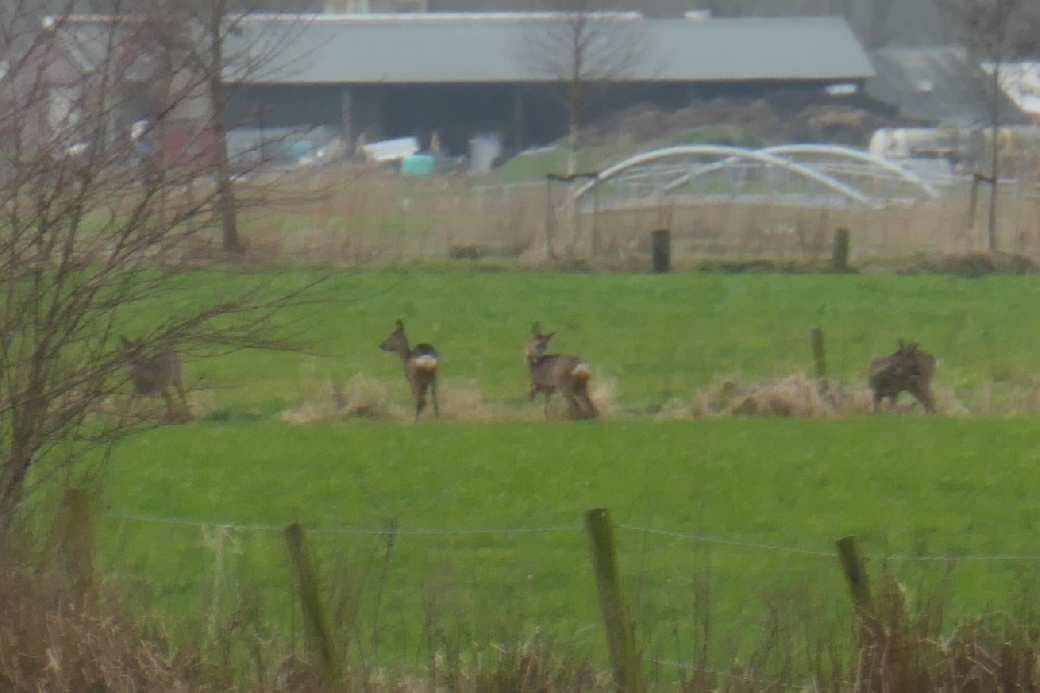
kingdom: Animalia
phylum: Chordata
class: Mammalia
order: Artiodactyla
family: Cervidae
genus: Capreolus
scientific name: Capreolus capreolus
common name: Western roe deer
